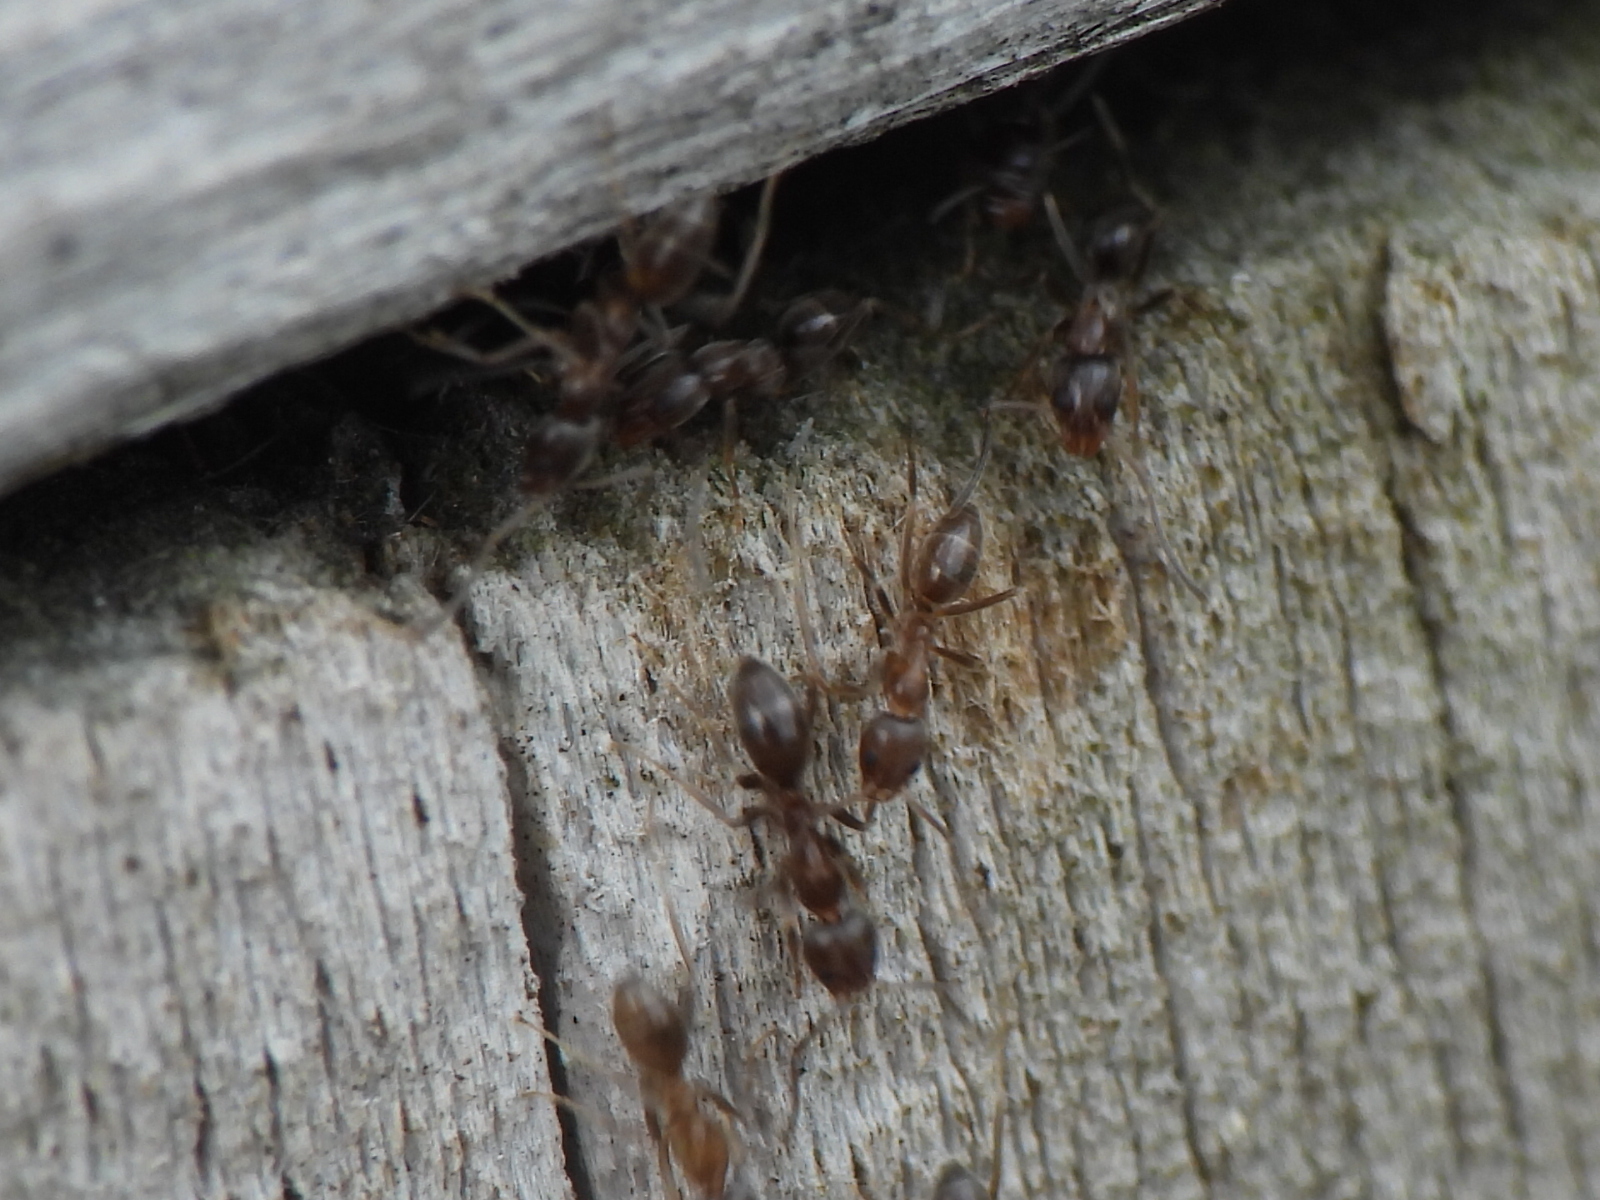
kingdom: Animalia
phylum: Arthropoda
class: Insecta
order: Hymenoptera
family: Formicidae
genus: Linepithema
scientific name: Linepithema humile
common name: Argentine ant
